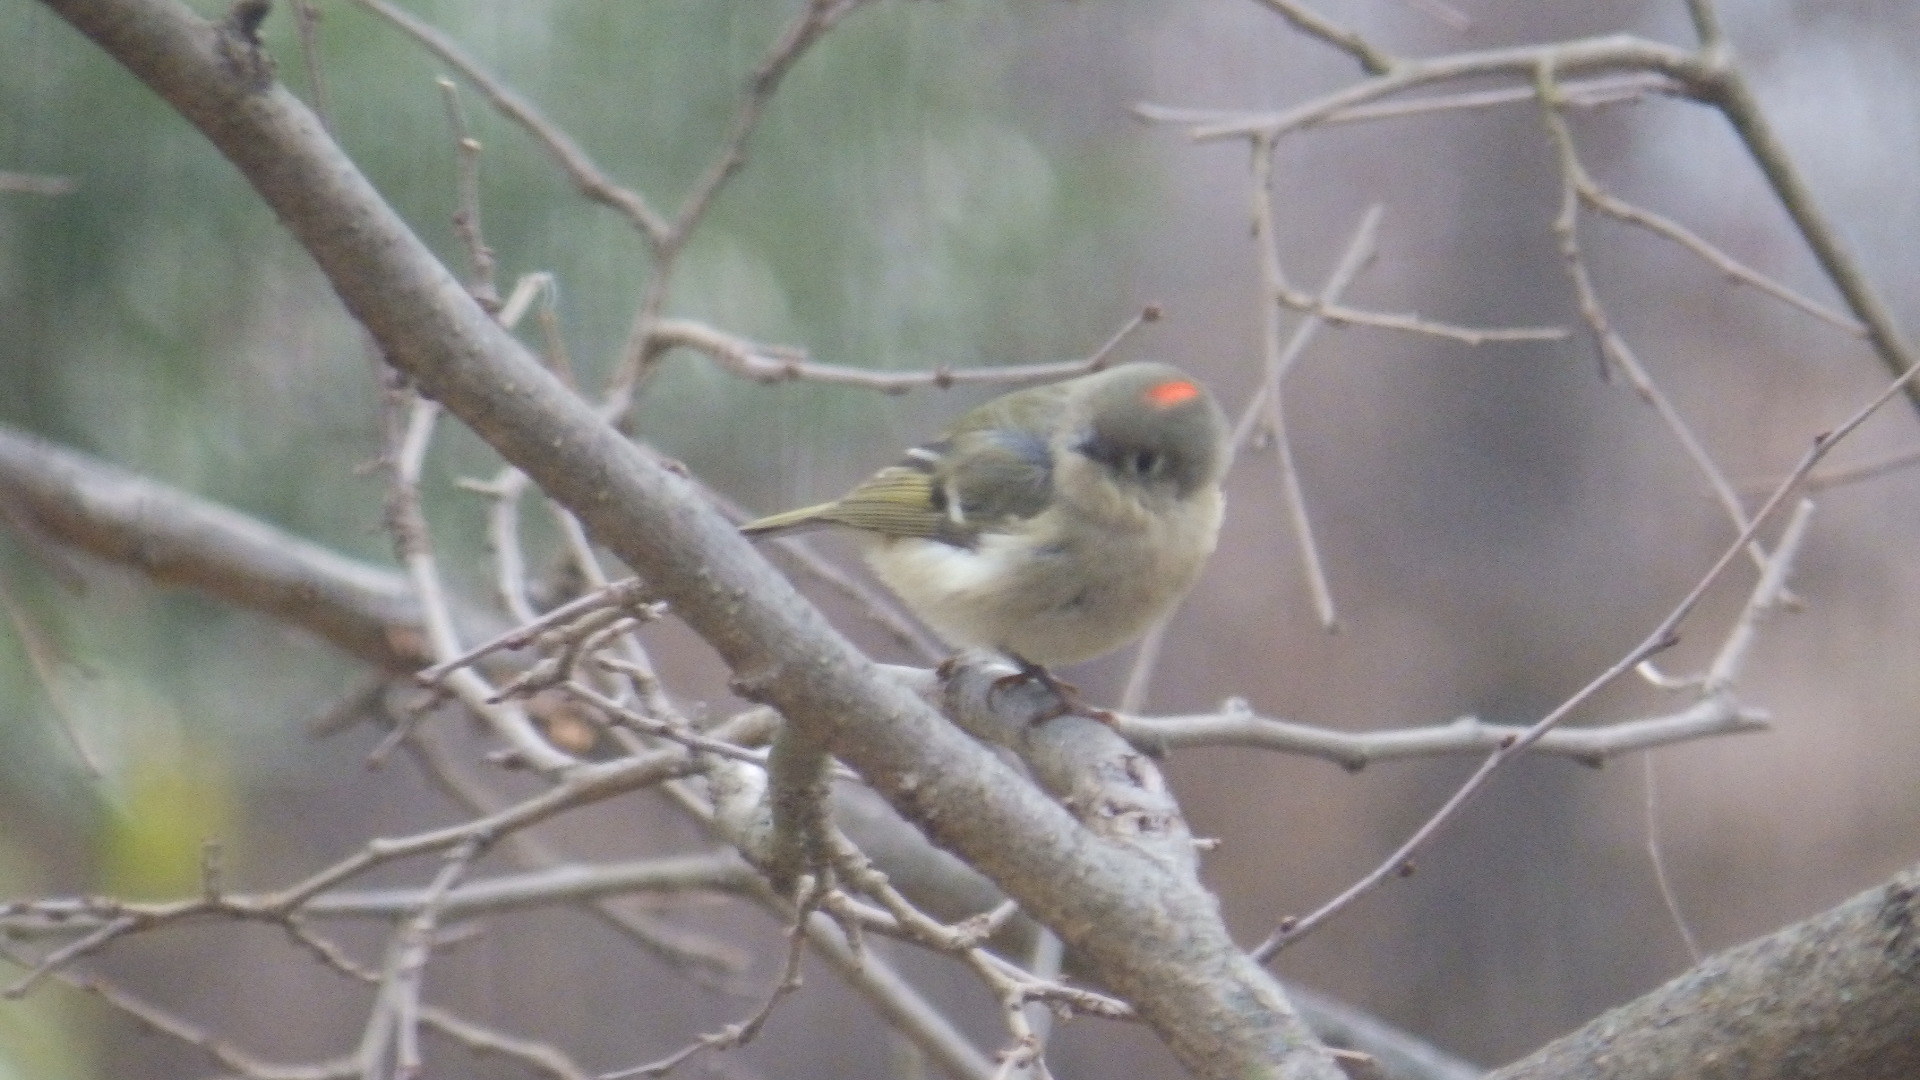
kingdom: Animalia
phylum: Chordata
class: Aves
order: Passeriformes
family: Regulidae
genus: Regulus
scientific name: Regulus calendula
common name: Ruby-crowned kinglet
